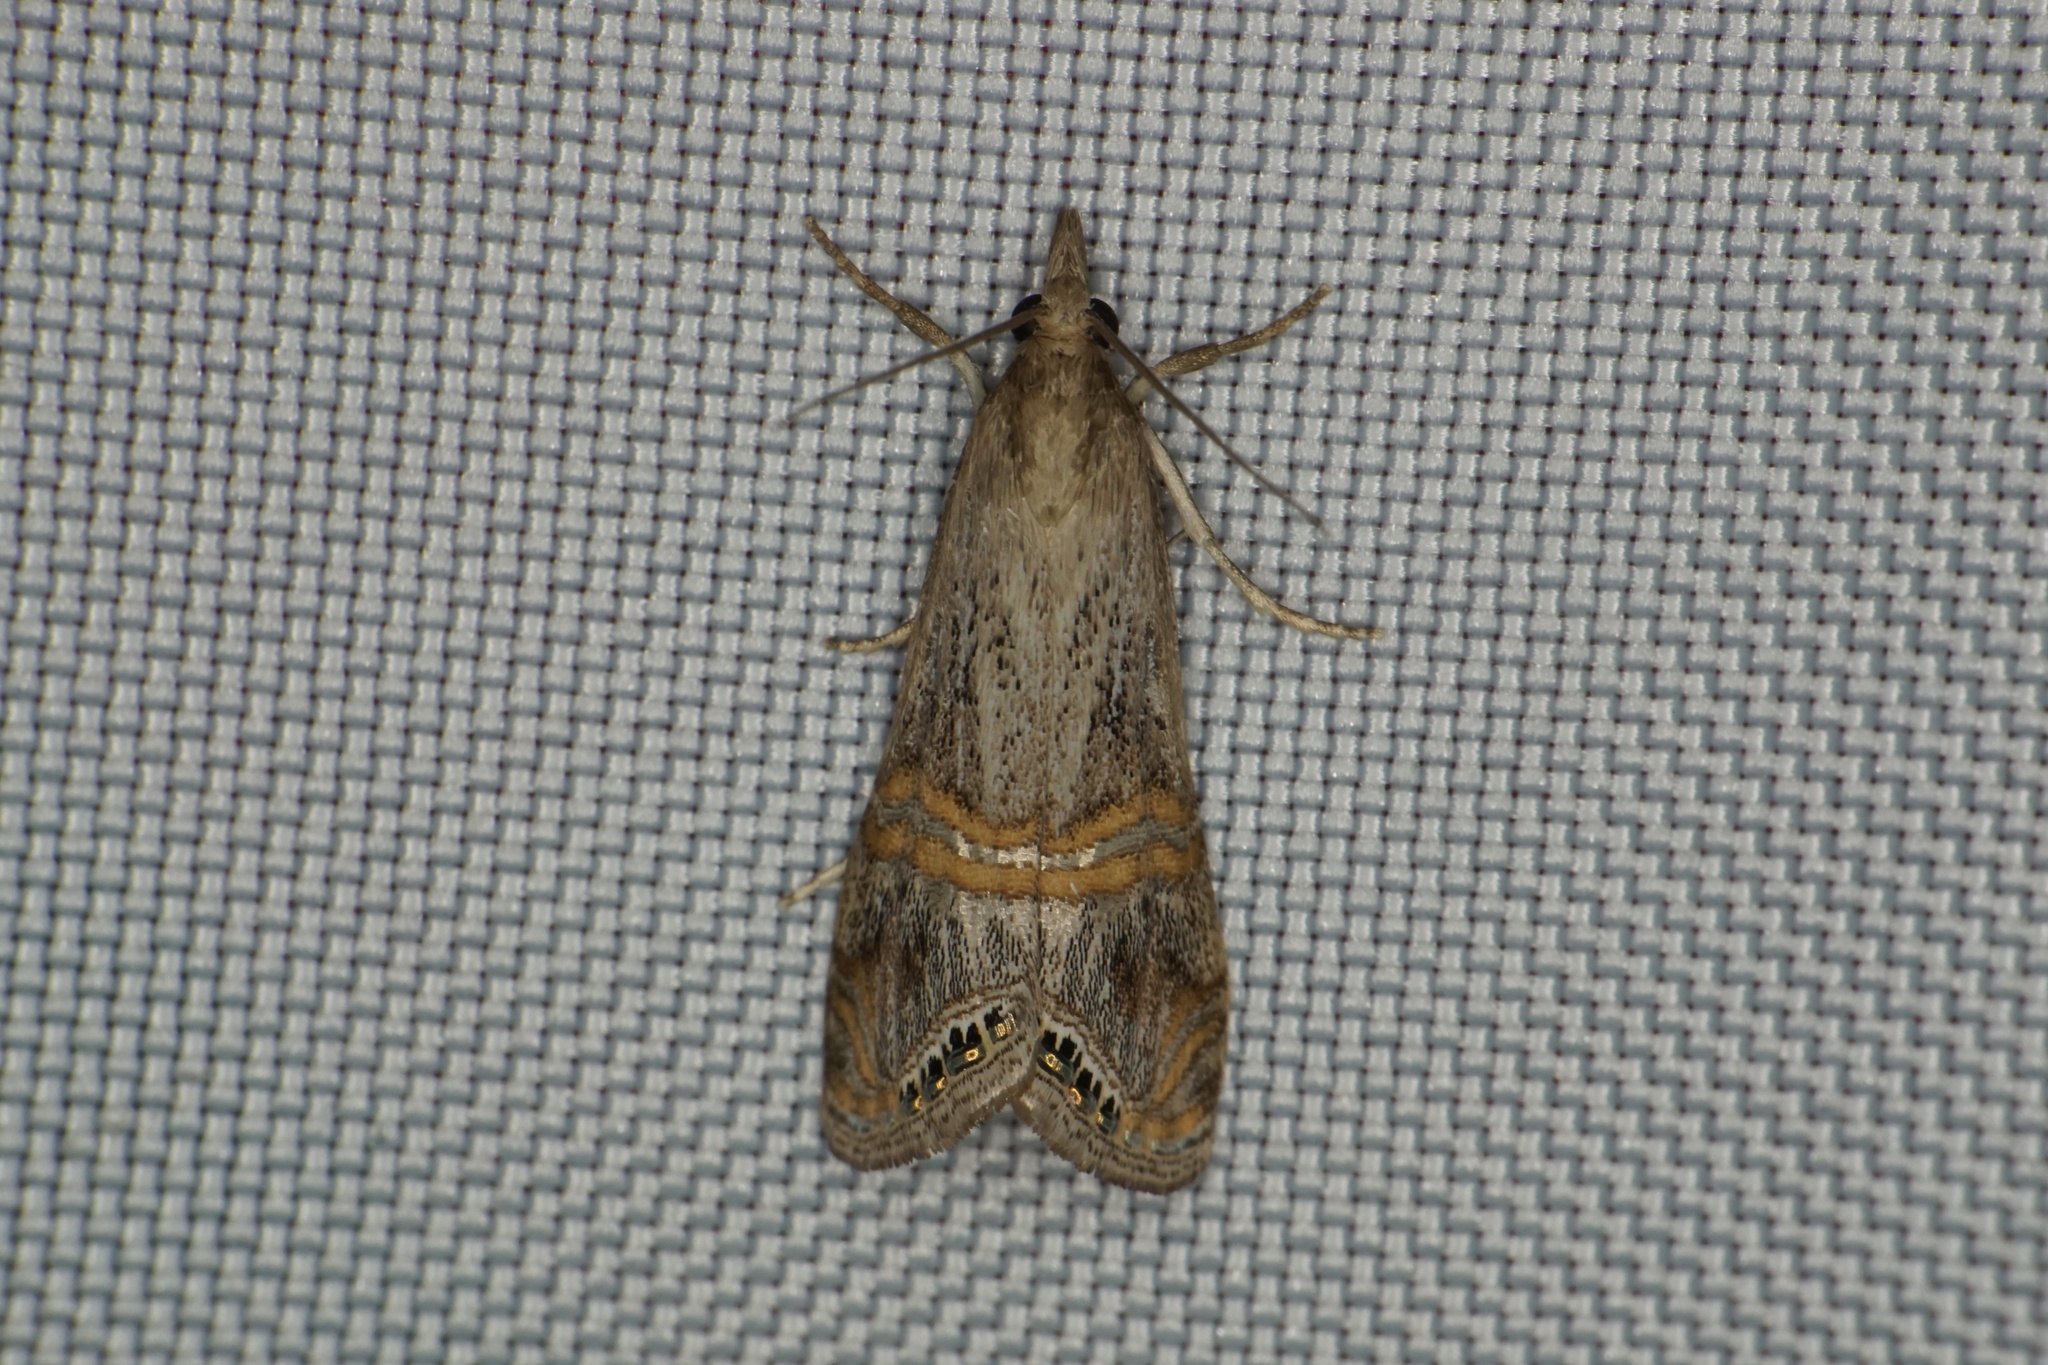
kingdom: Animalia
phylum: Arthropoda
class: Insecta
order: Lepidoptera
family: Crambidae
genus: Euchromius
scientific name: Euchromius ocellea
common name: Necklace veneer moth
